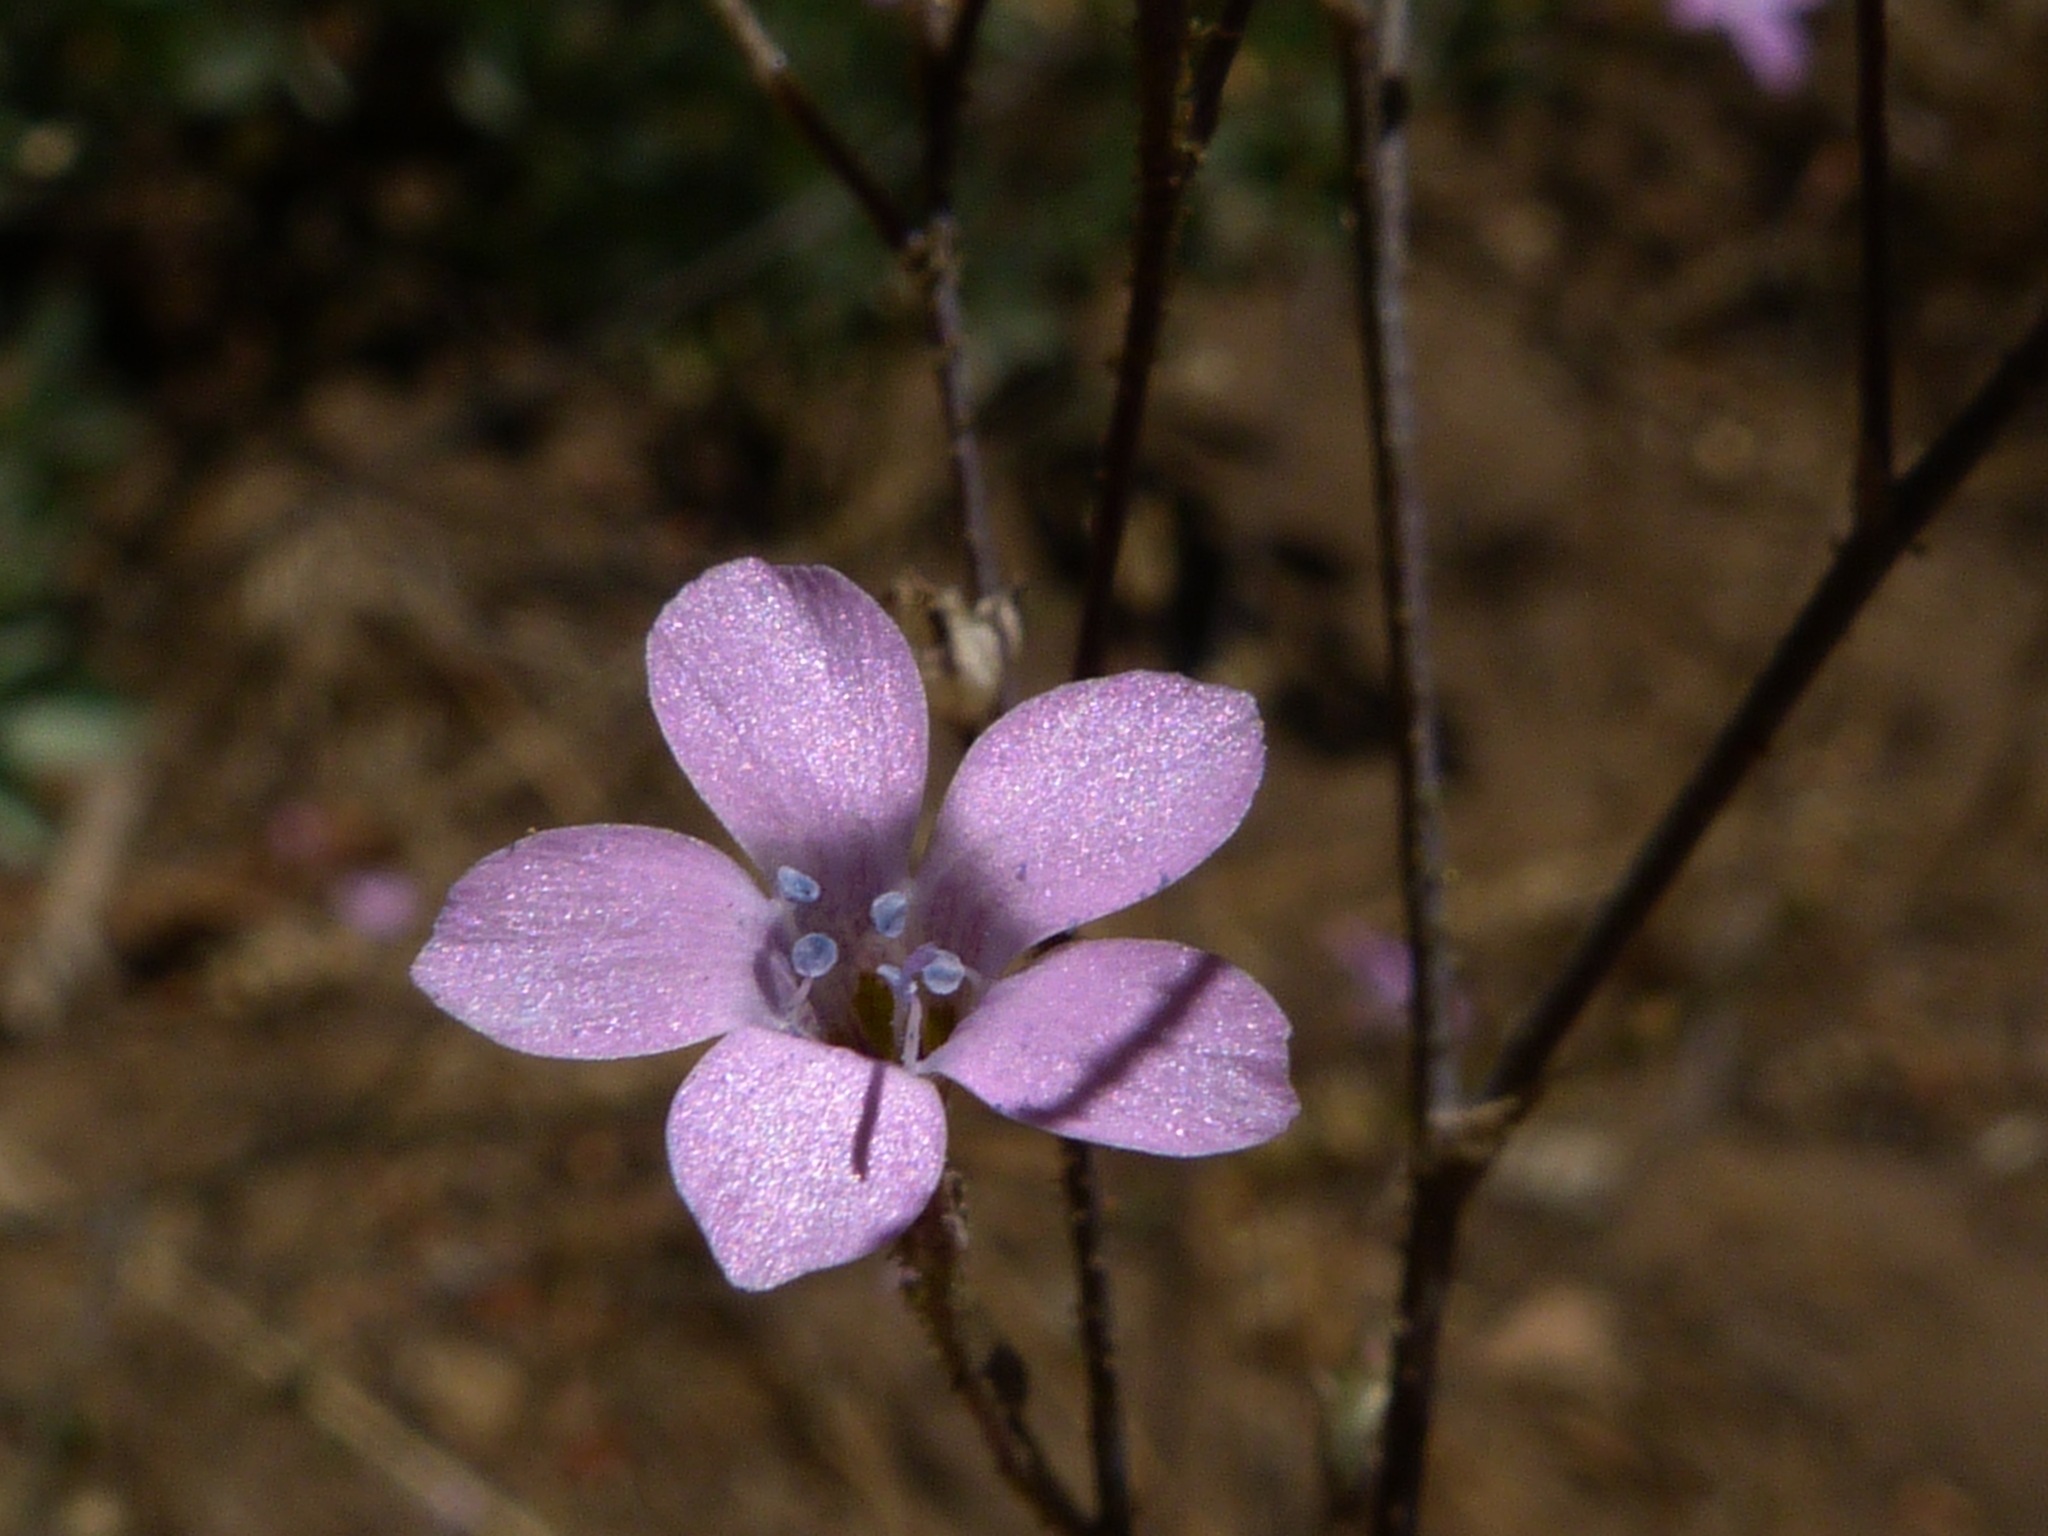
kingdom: Plantae
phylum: Tracheophyta
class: Magnoliopsida
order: Ericales
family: Polemoniaceae
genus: Saltugilia
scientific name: Saltugilia splendens
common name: Grinnell's gilia
